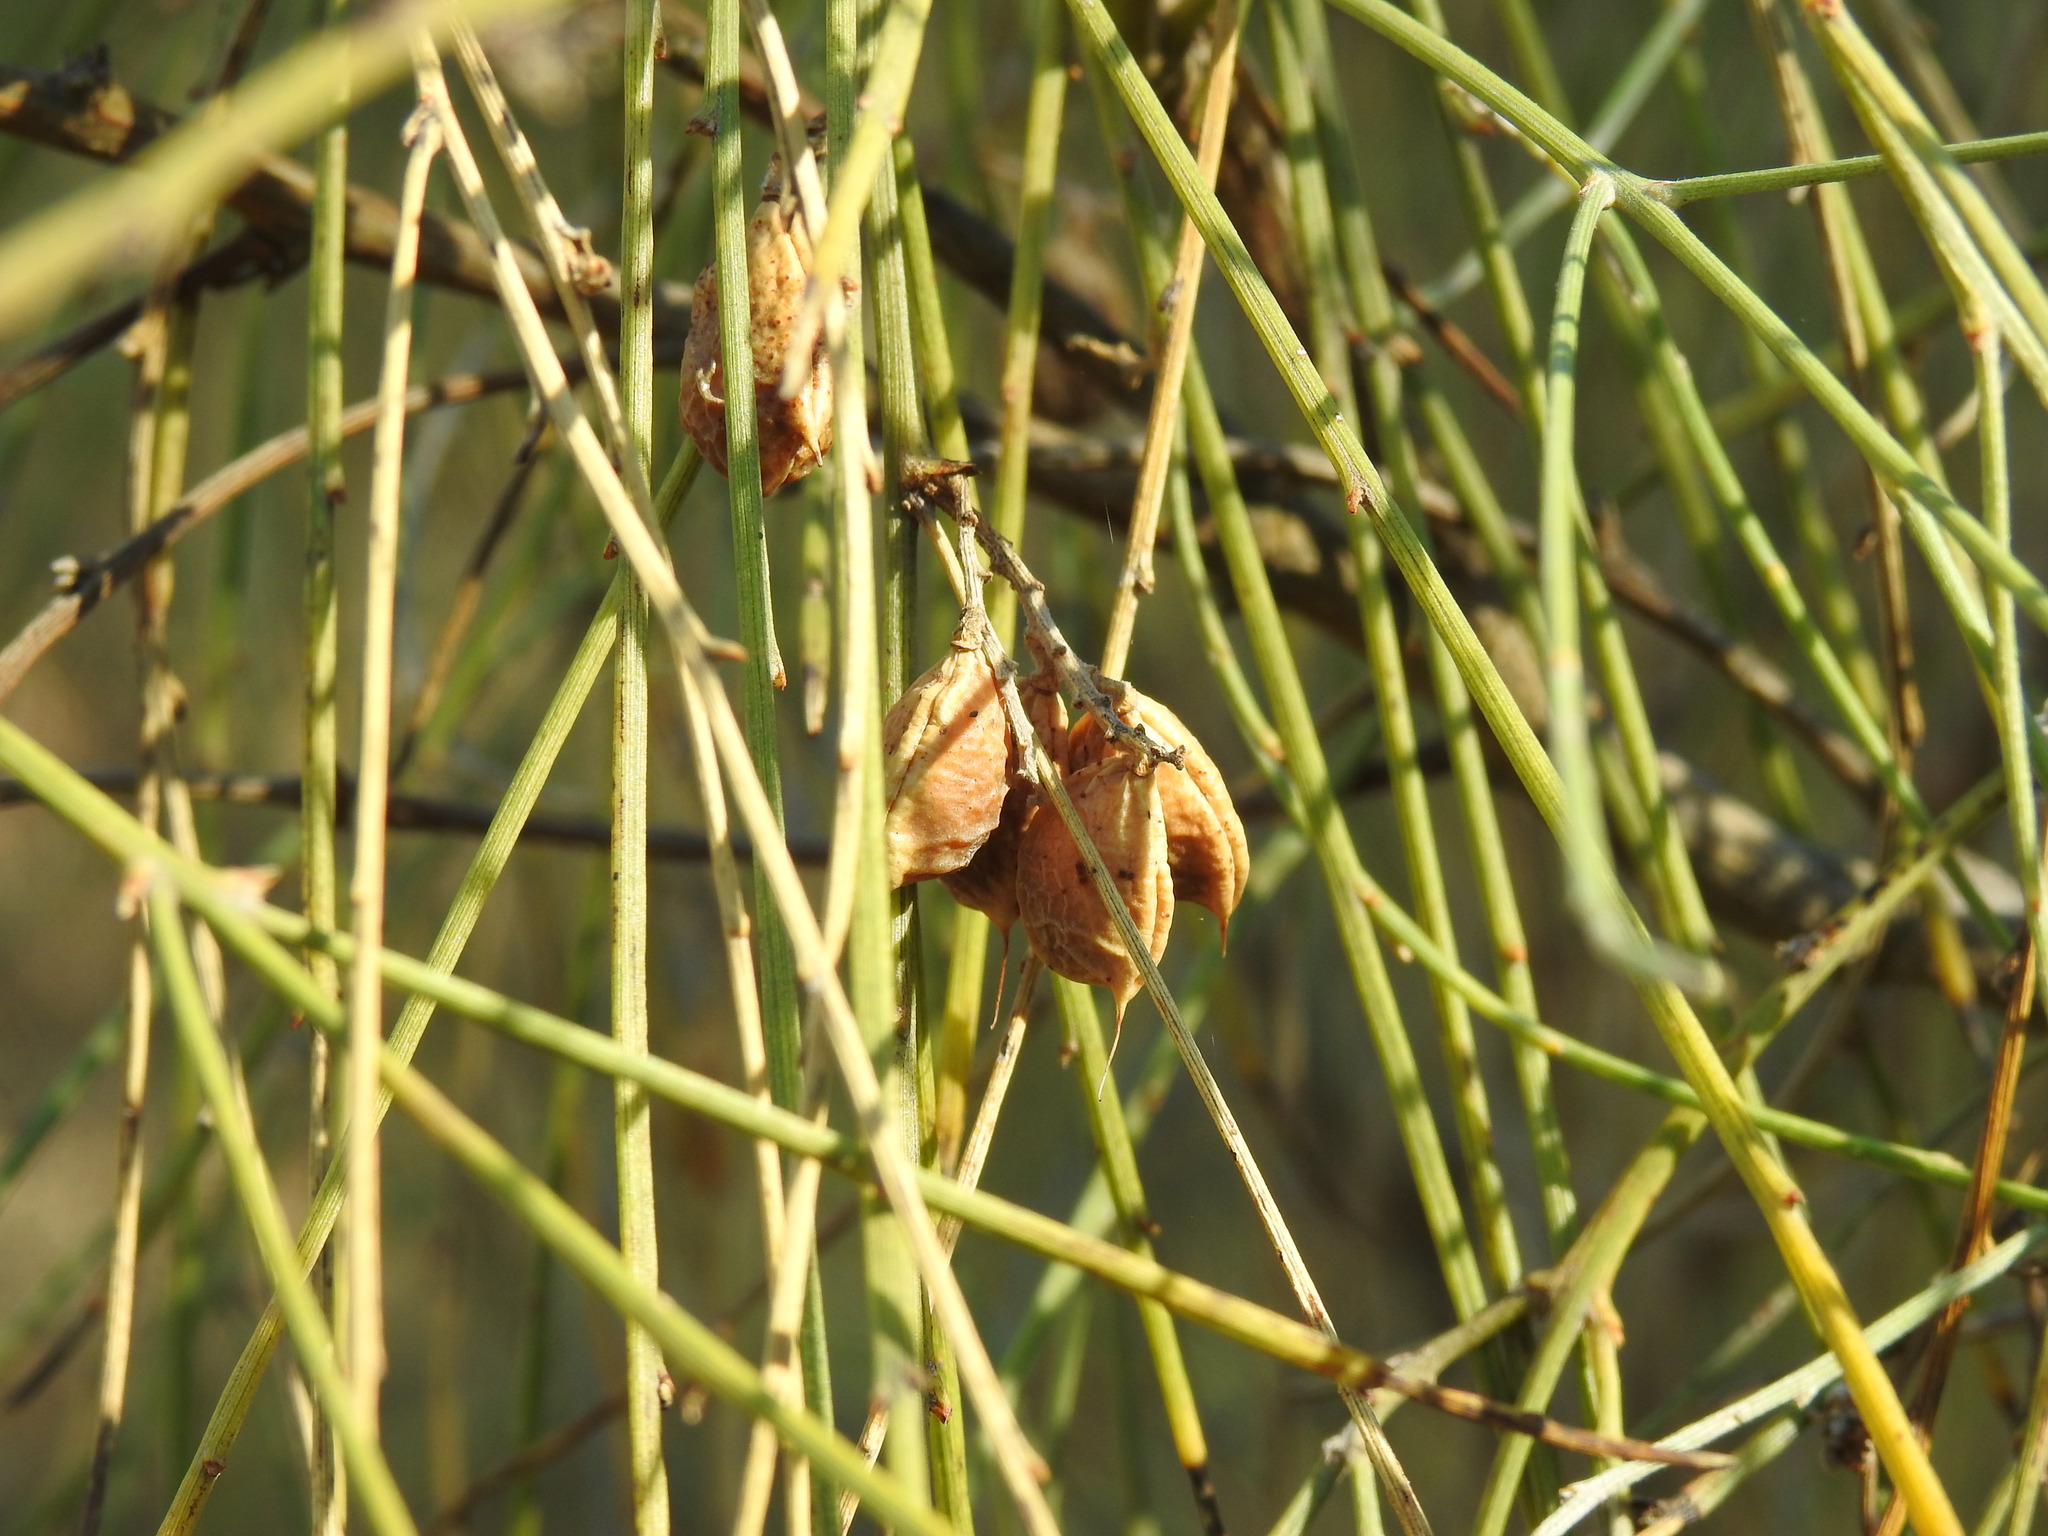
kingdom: Plantae
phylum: Tracheophyta
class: Magnoliopsida
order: Fabales
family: Fabaceae
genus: Retama
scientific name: Retama monosperma
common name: Bridal broom
